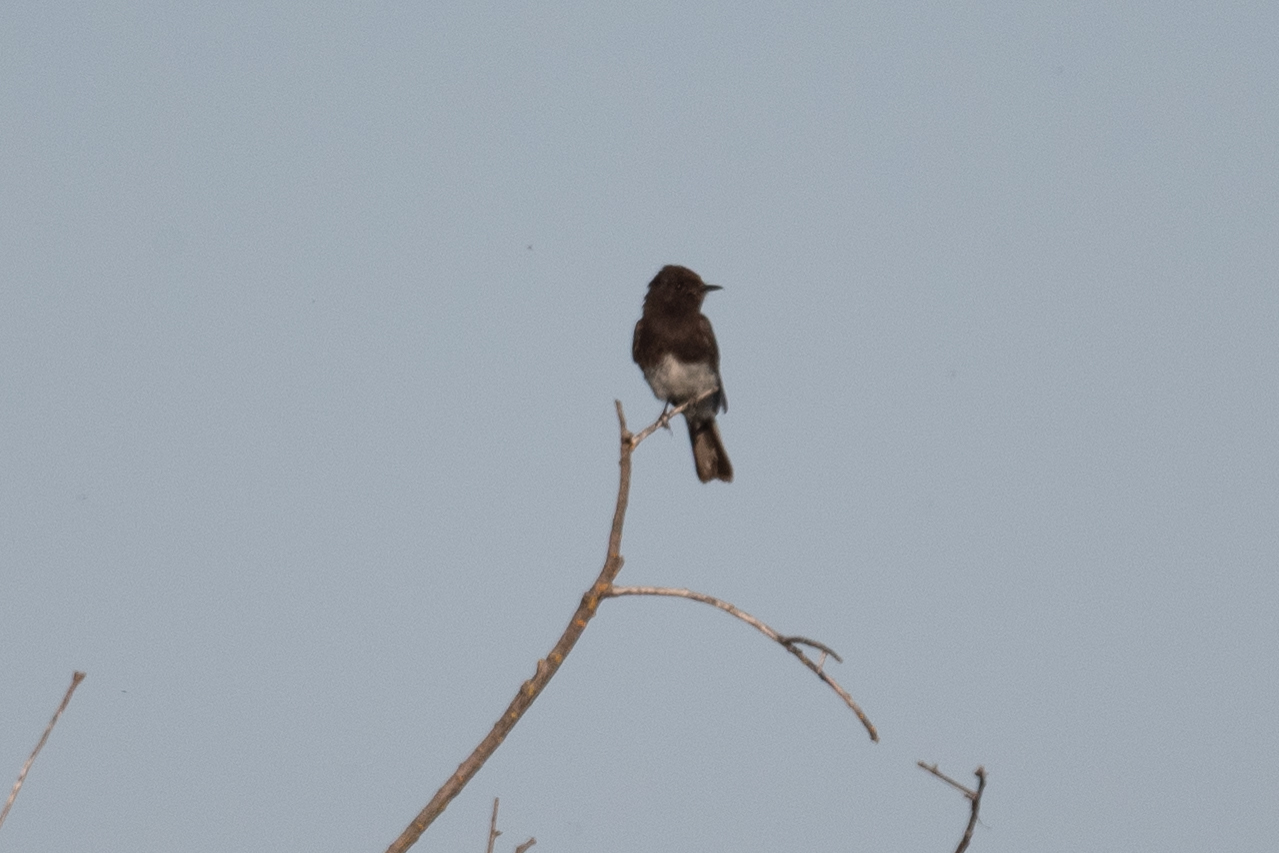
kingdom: Animalia
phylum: Chordata
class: Aves
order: Passeriformes
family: Tyrannidae
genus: Sayornis
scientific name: Sayornis nigricans
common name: Black phoebe
